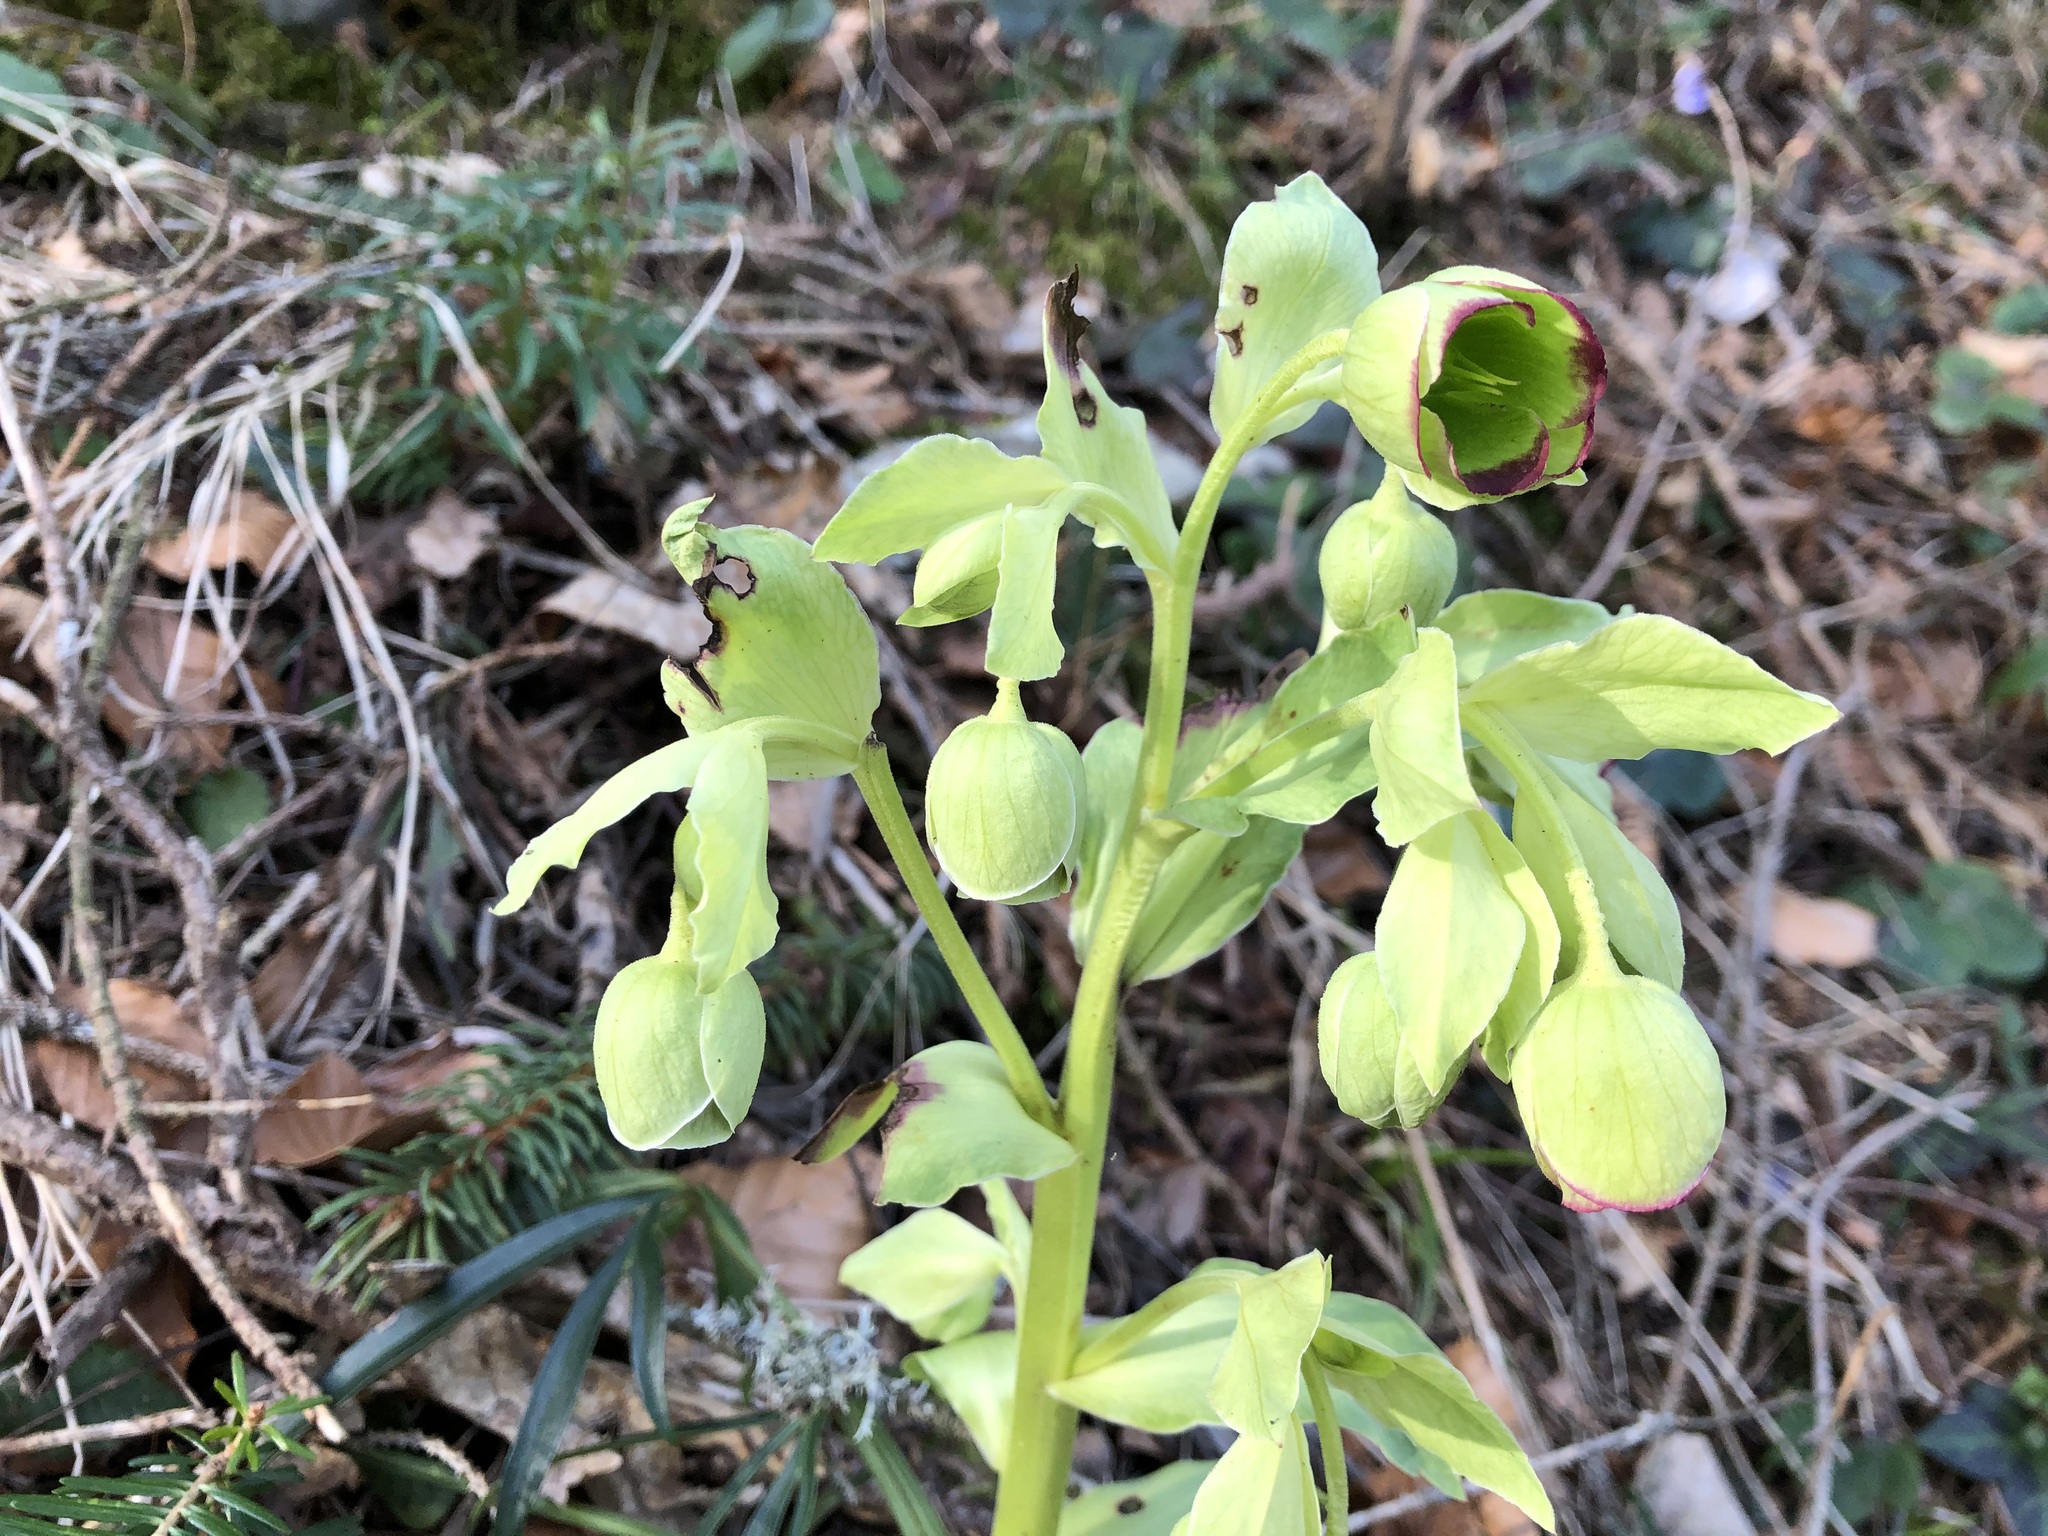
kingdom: Plantae
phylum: Tracheophyta
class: Magnoliopsida
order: Ranunculales
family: Ranunculaceae
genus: Helleborus
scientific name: Helleborus foetidus
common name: Stinking hellebore
